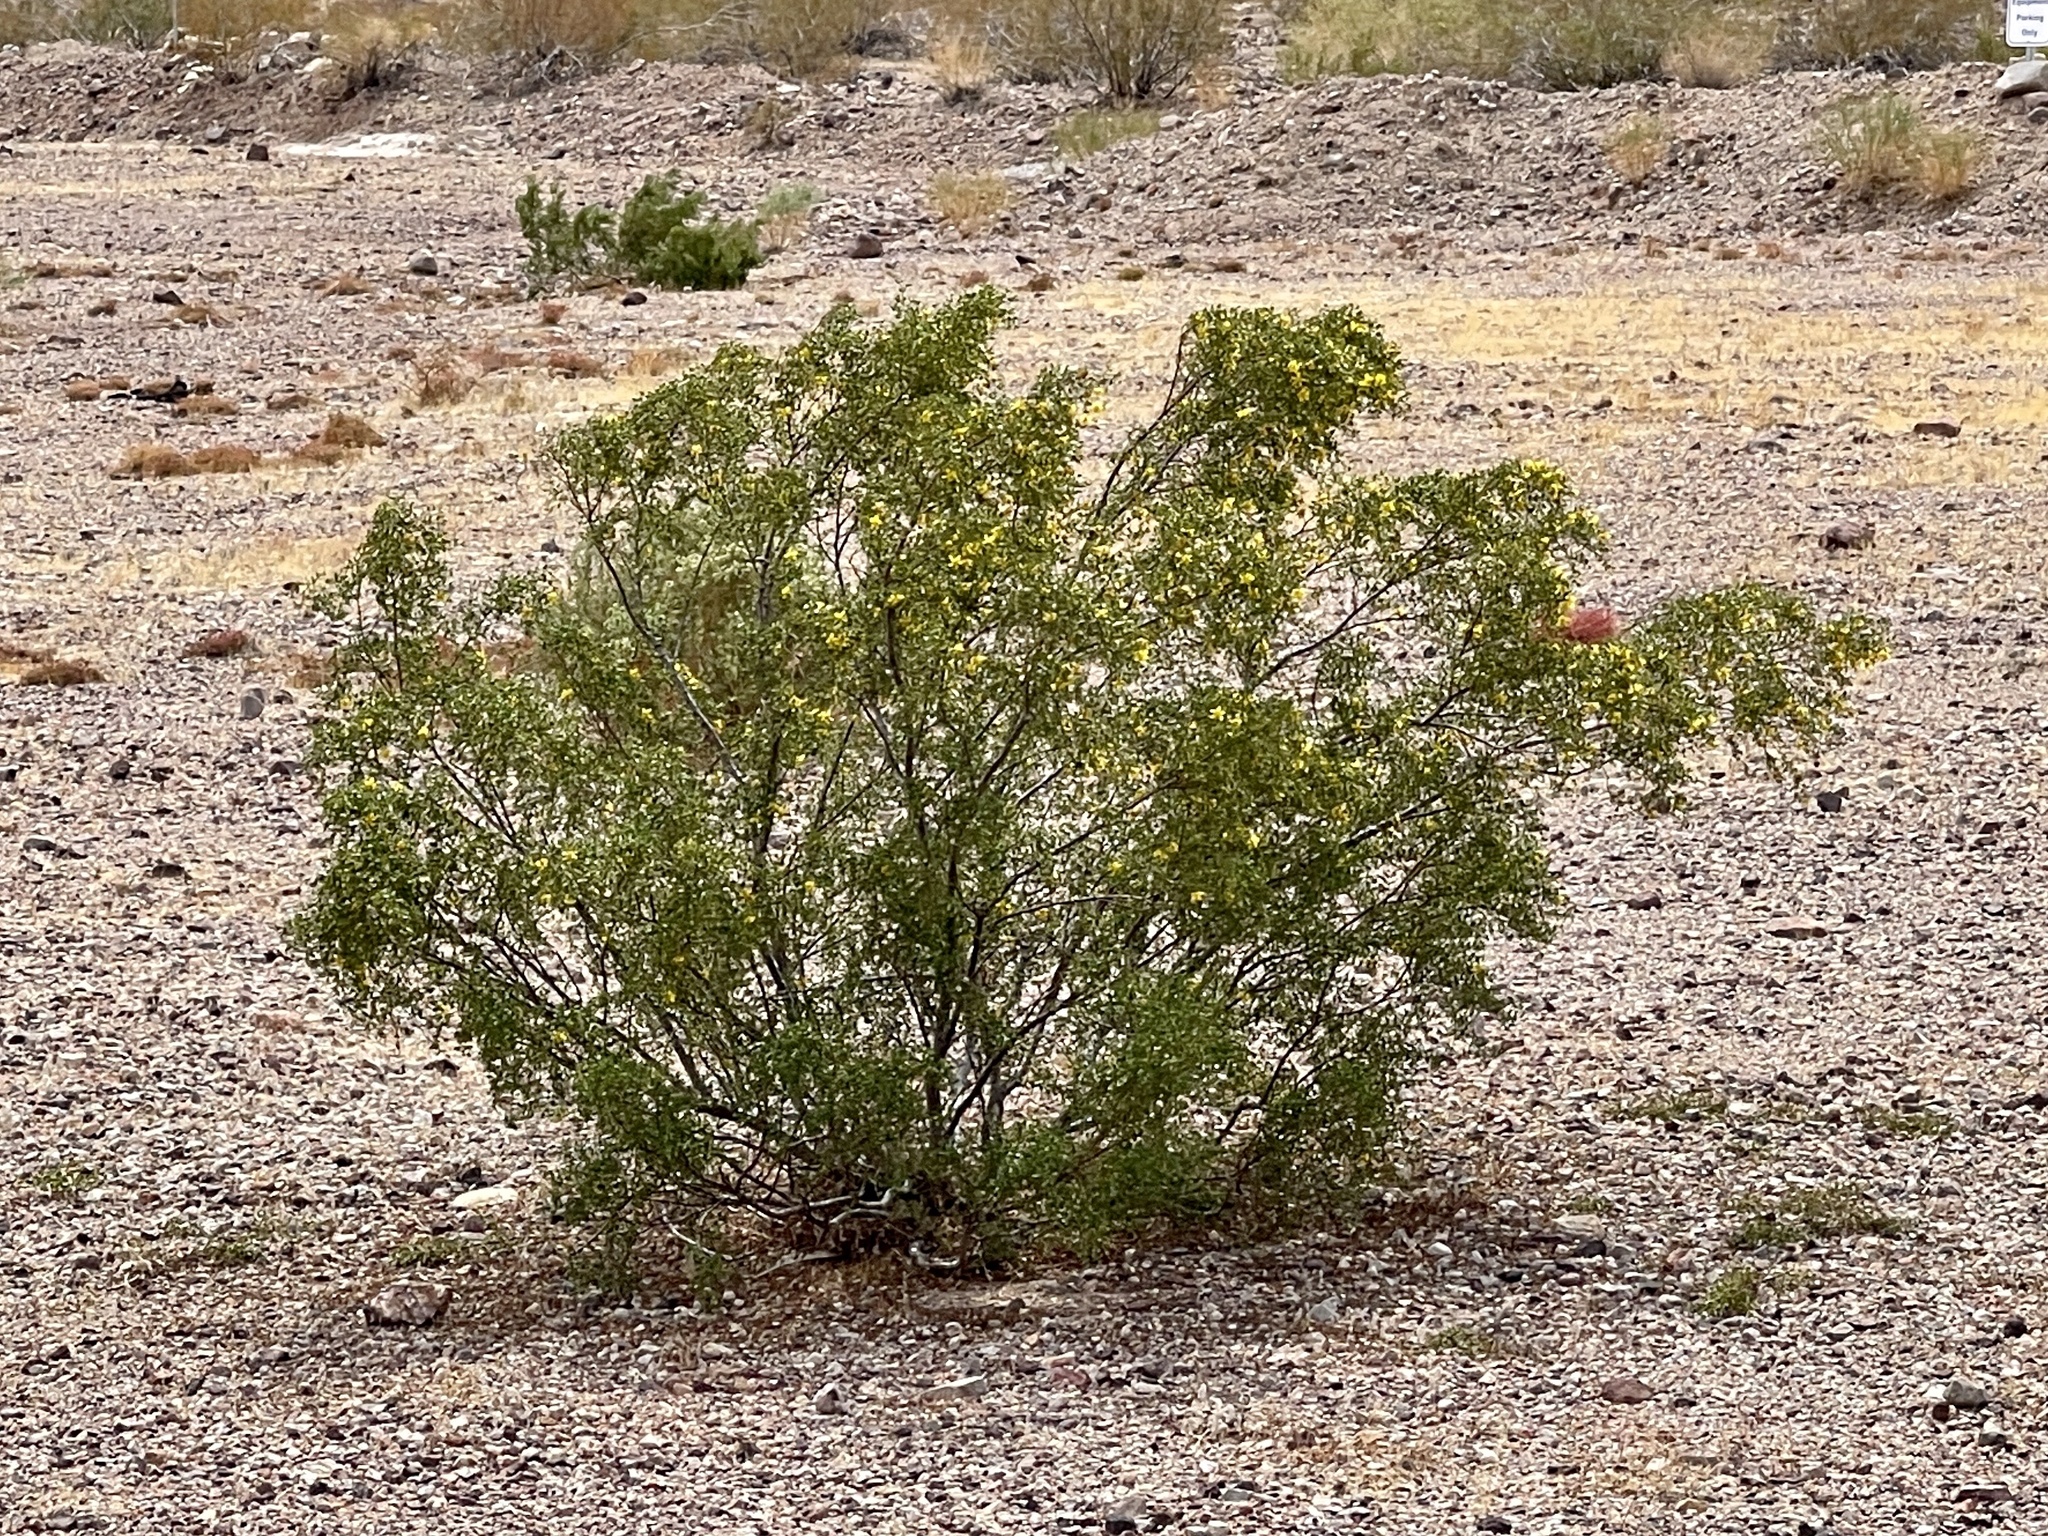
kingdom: Plantae
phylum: Tracheophyta
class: Magnoliopsida
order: Zygophyllales
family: Zygophyllaceae
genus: Larrea
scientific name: Larrea tridentata
